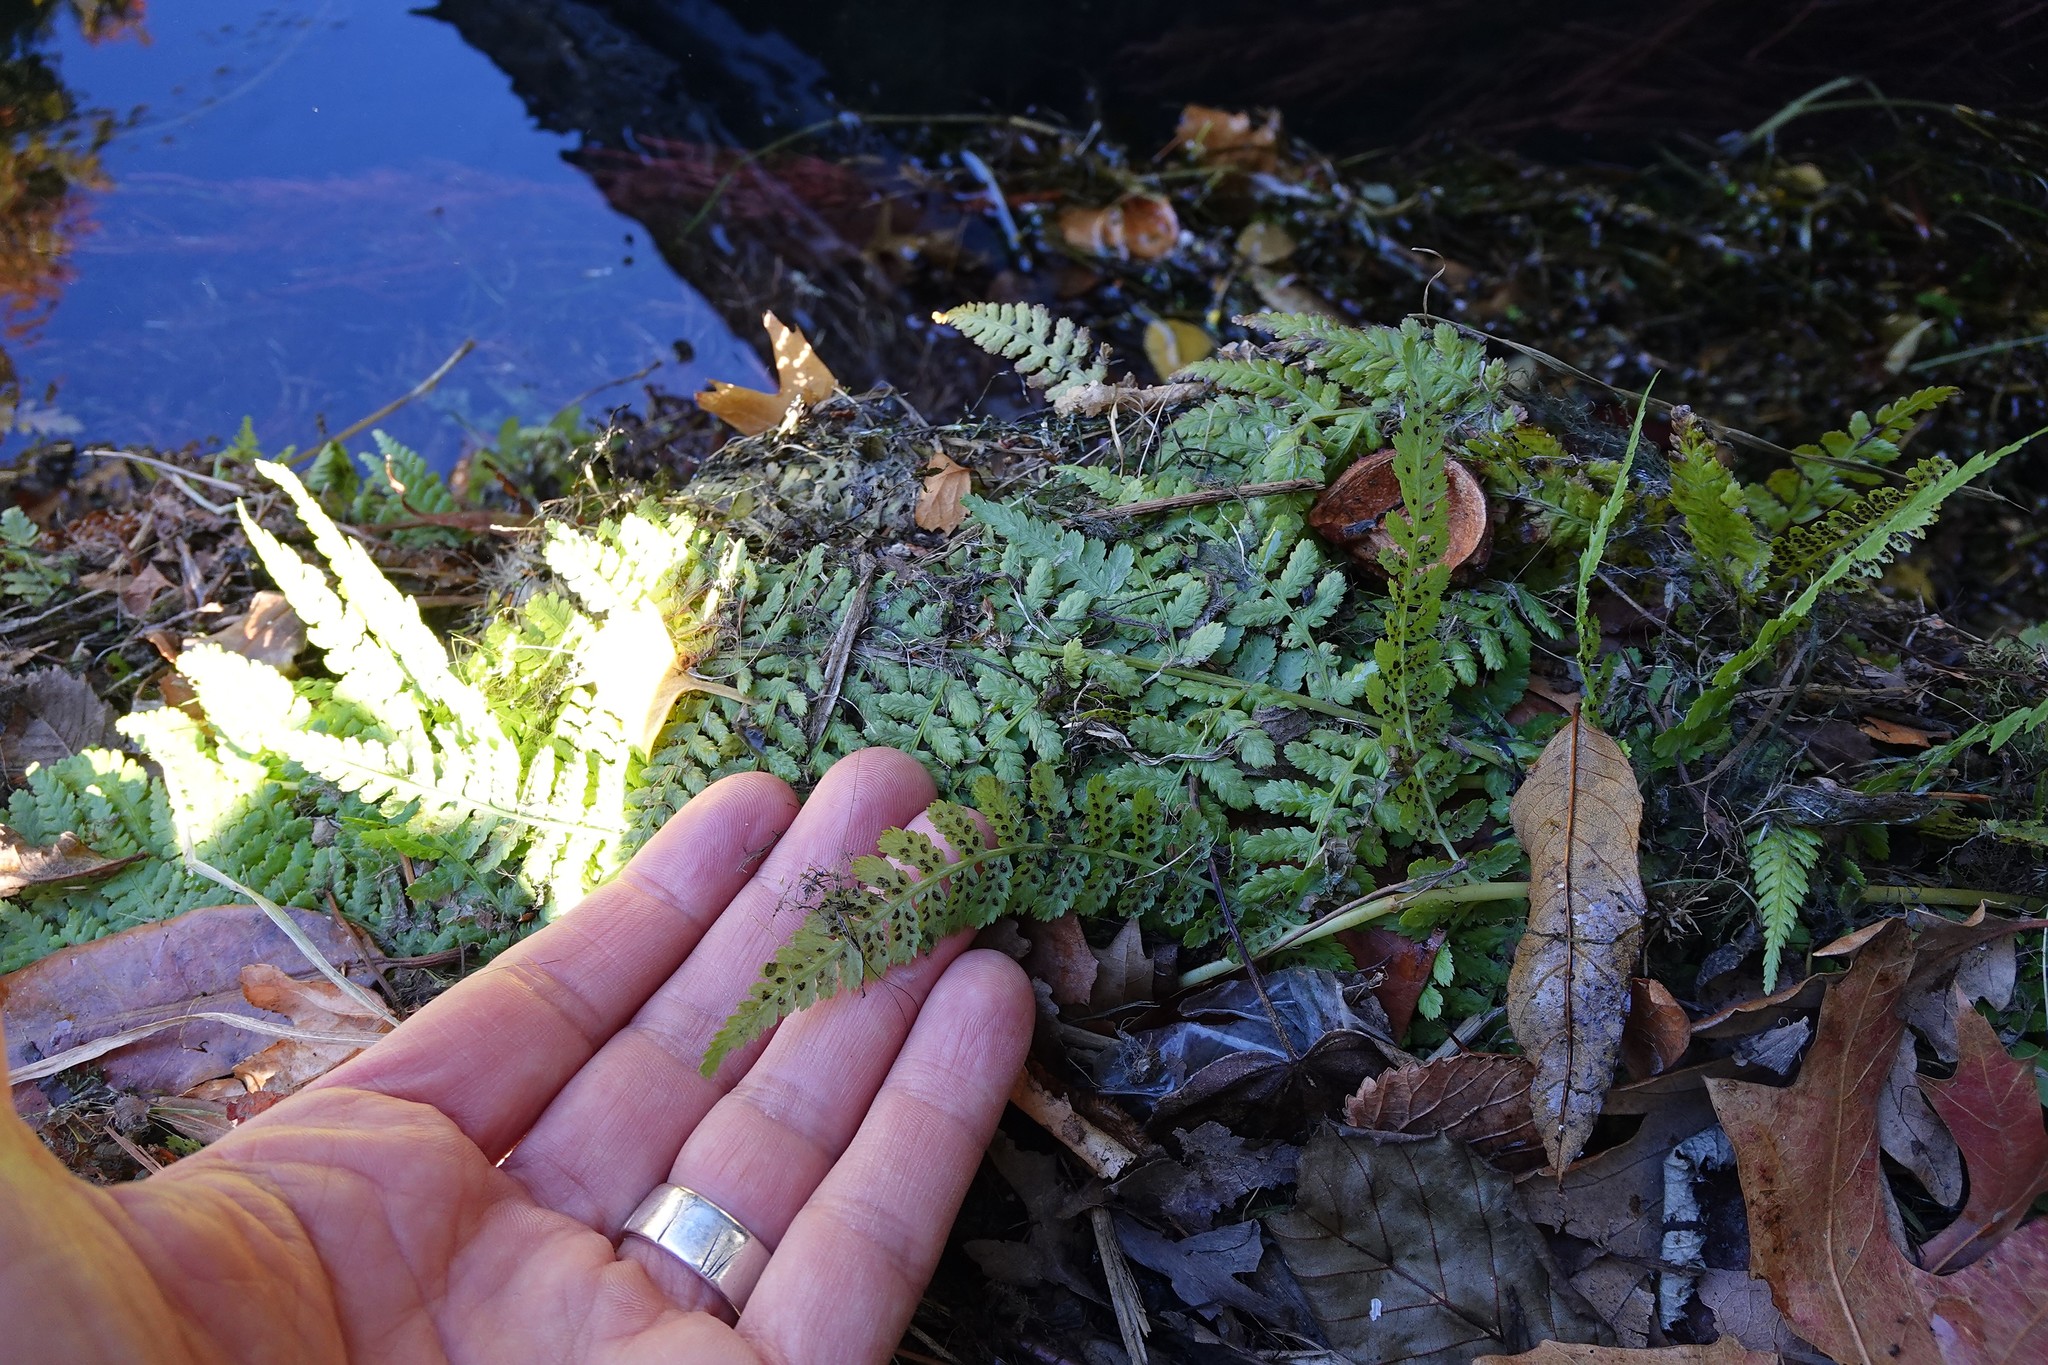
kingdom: Plantae
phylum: Tracheophyta
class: Polypodiopsida
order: Polypodiales
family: Dryopteridaceae
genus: Dryopteris
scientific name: Dryopteris filix-mas
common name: Male fern
